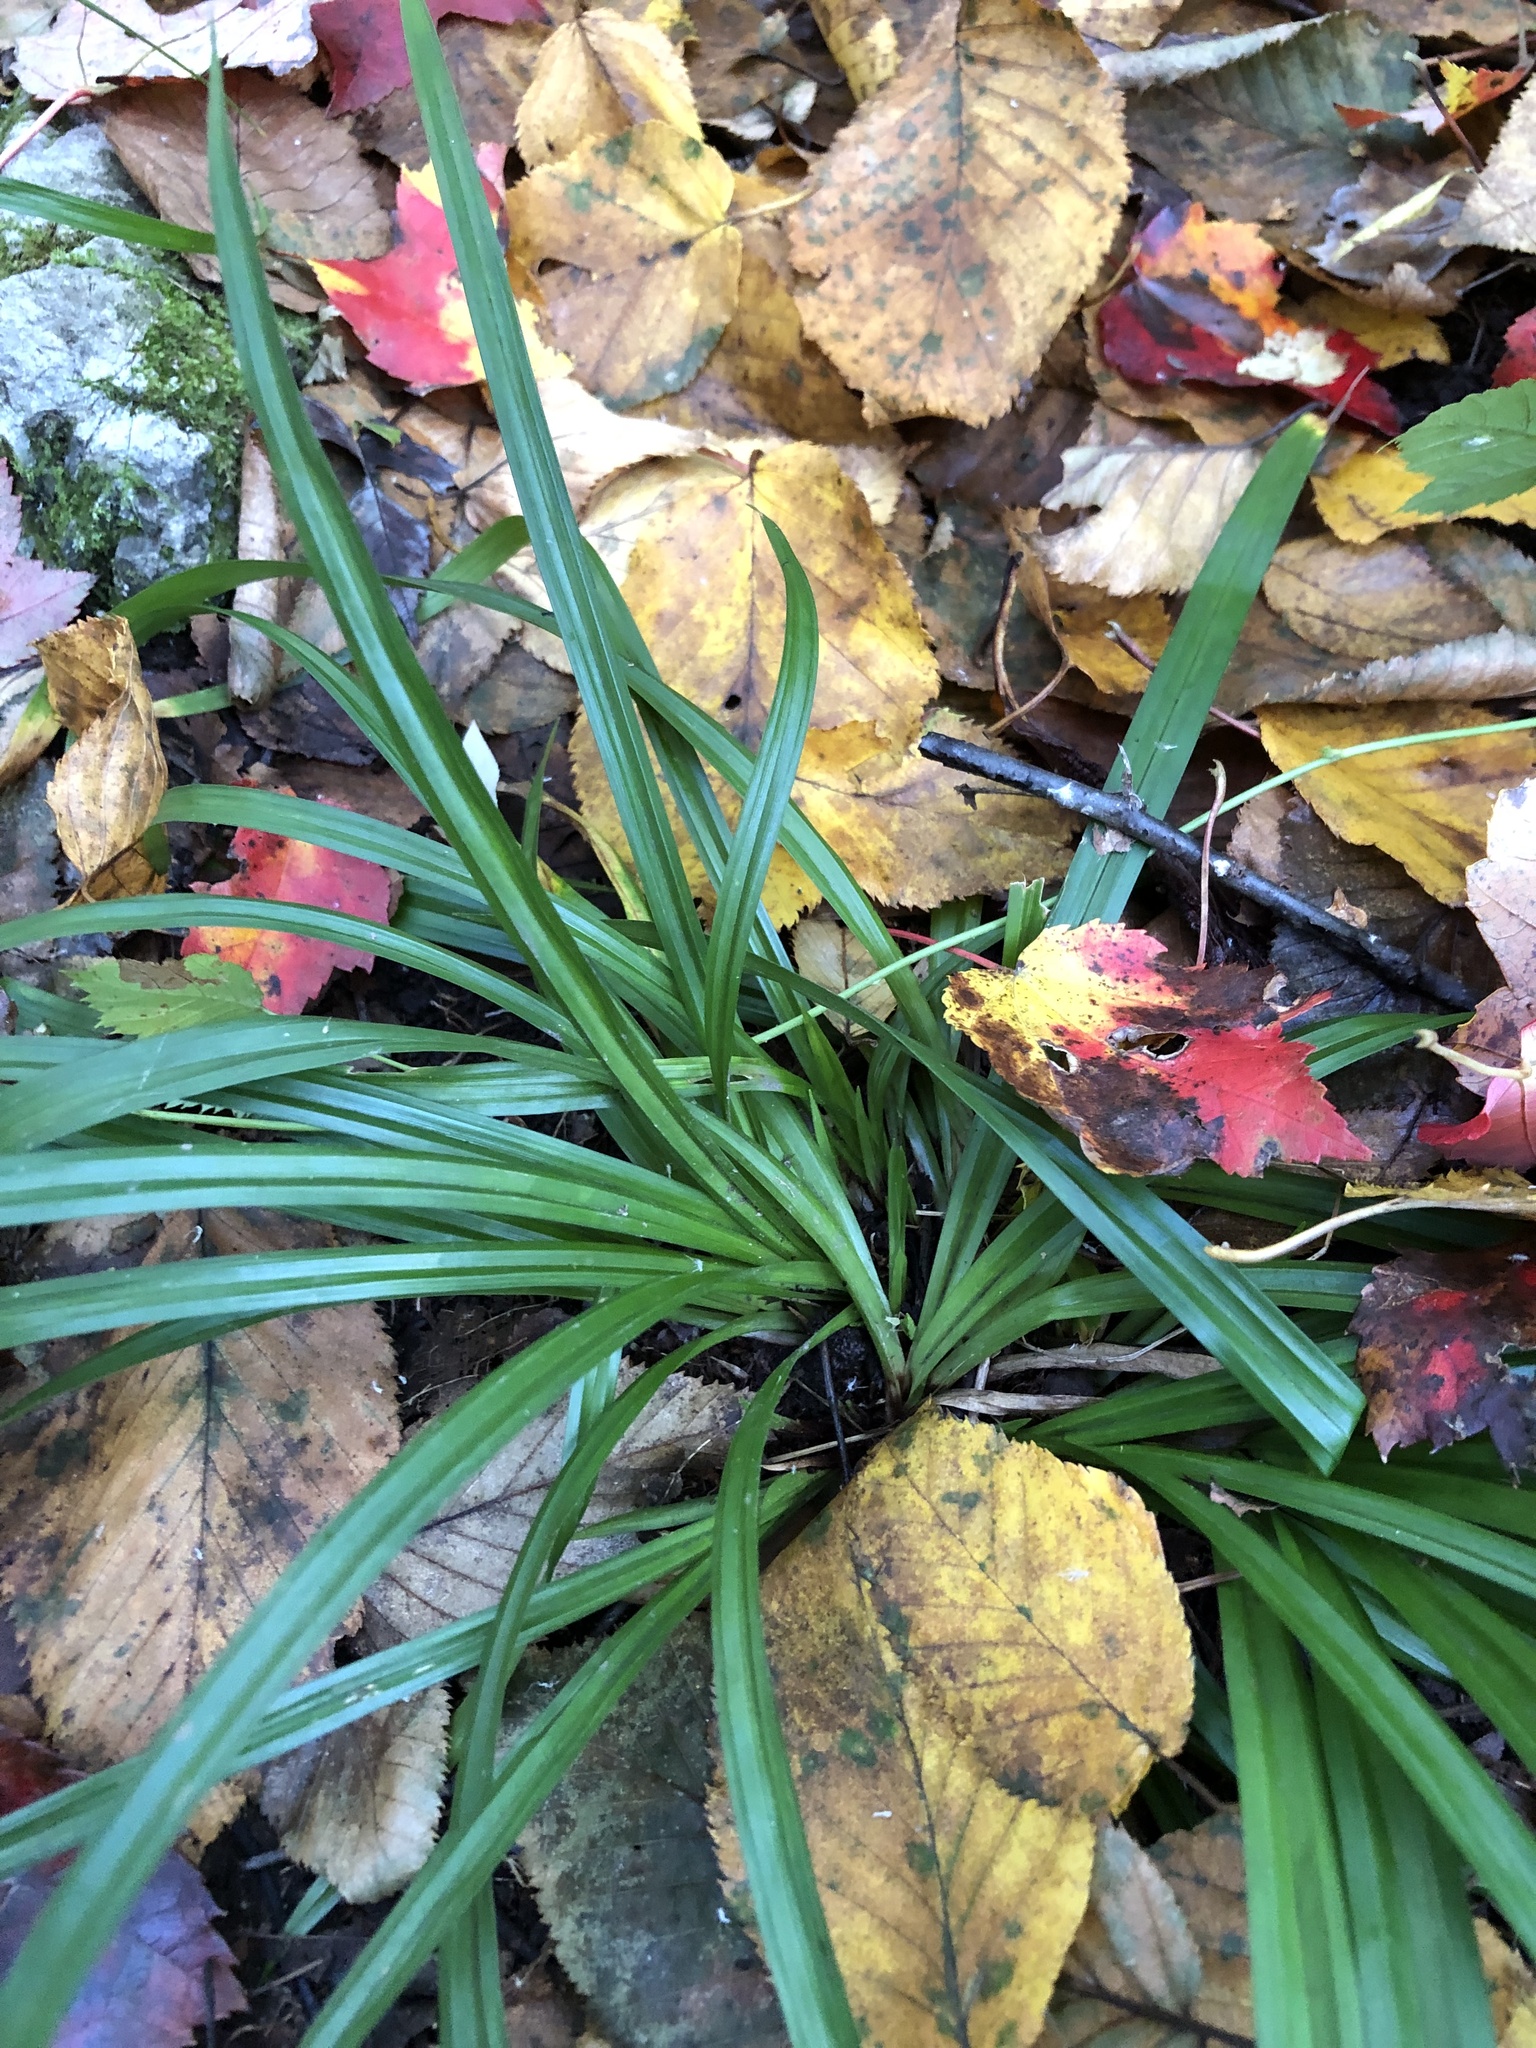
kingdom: Plantae
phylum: Tracheophyta
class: Liliopsida
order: Poales
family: Cyperaceae
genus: Carex
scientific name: Carex
